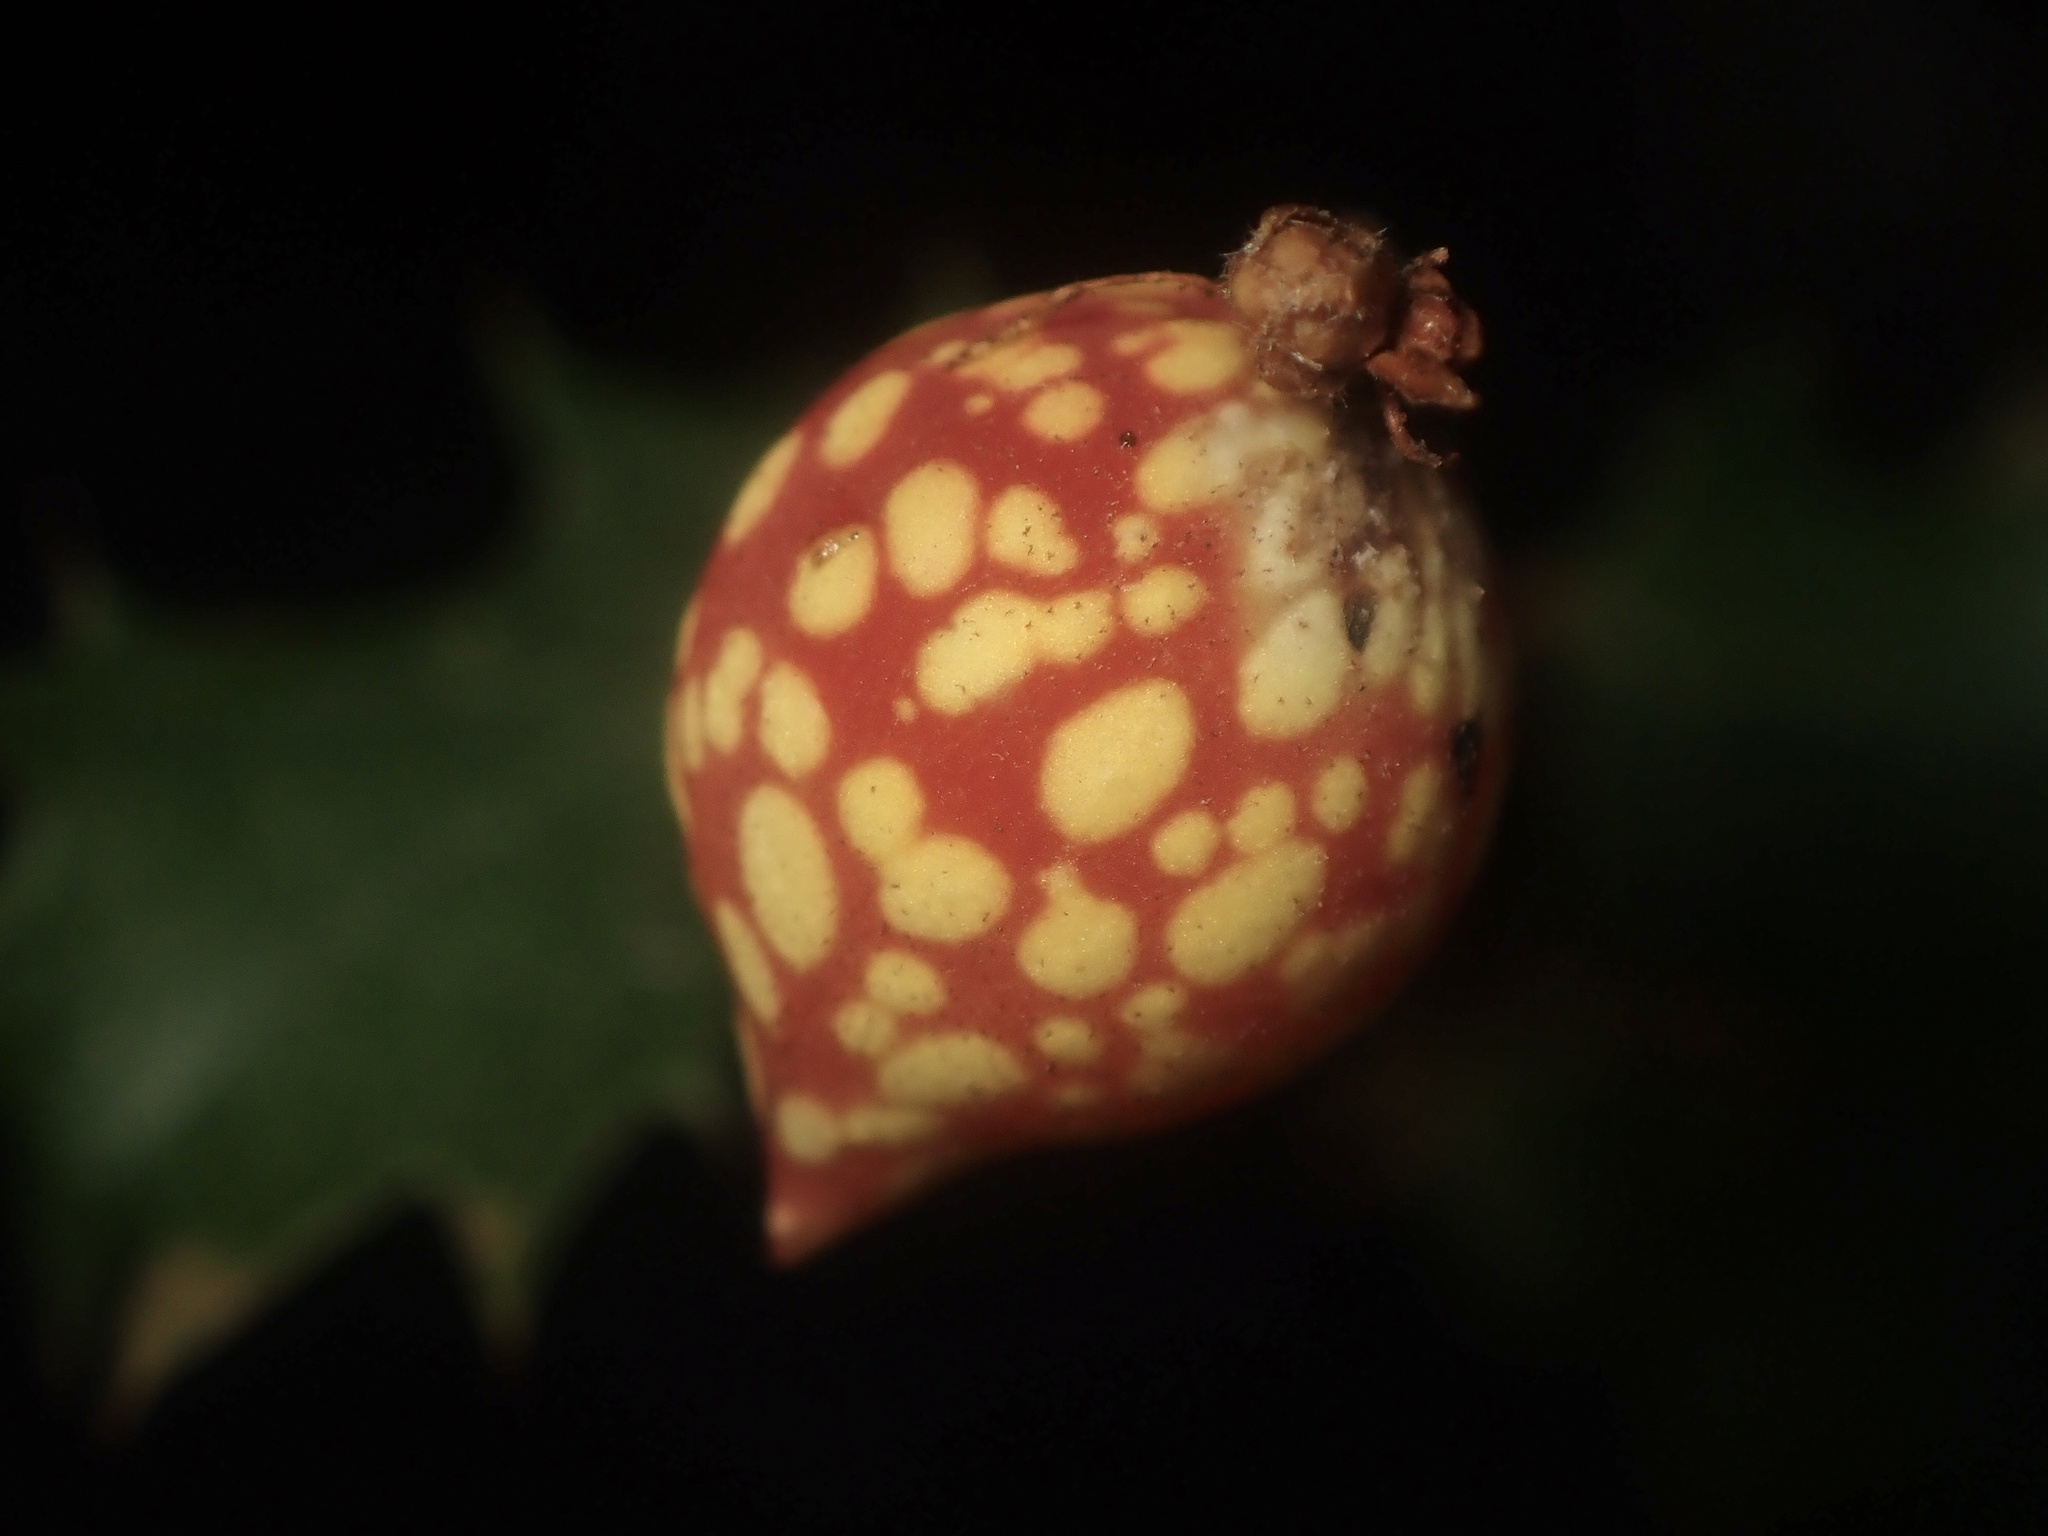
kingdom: Animalia
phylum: Arthropoda
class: Insecta
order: Hymenoptera
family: Cynipidae
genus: Burnettweldia
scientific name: Burnettweldia
